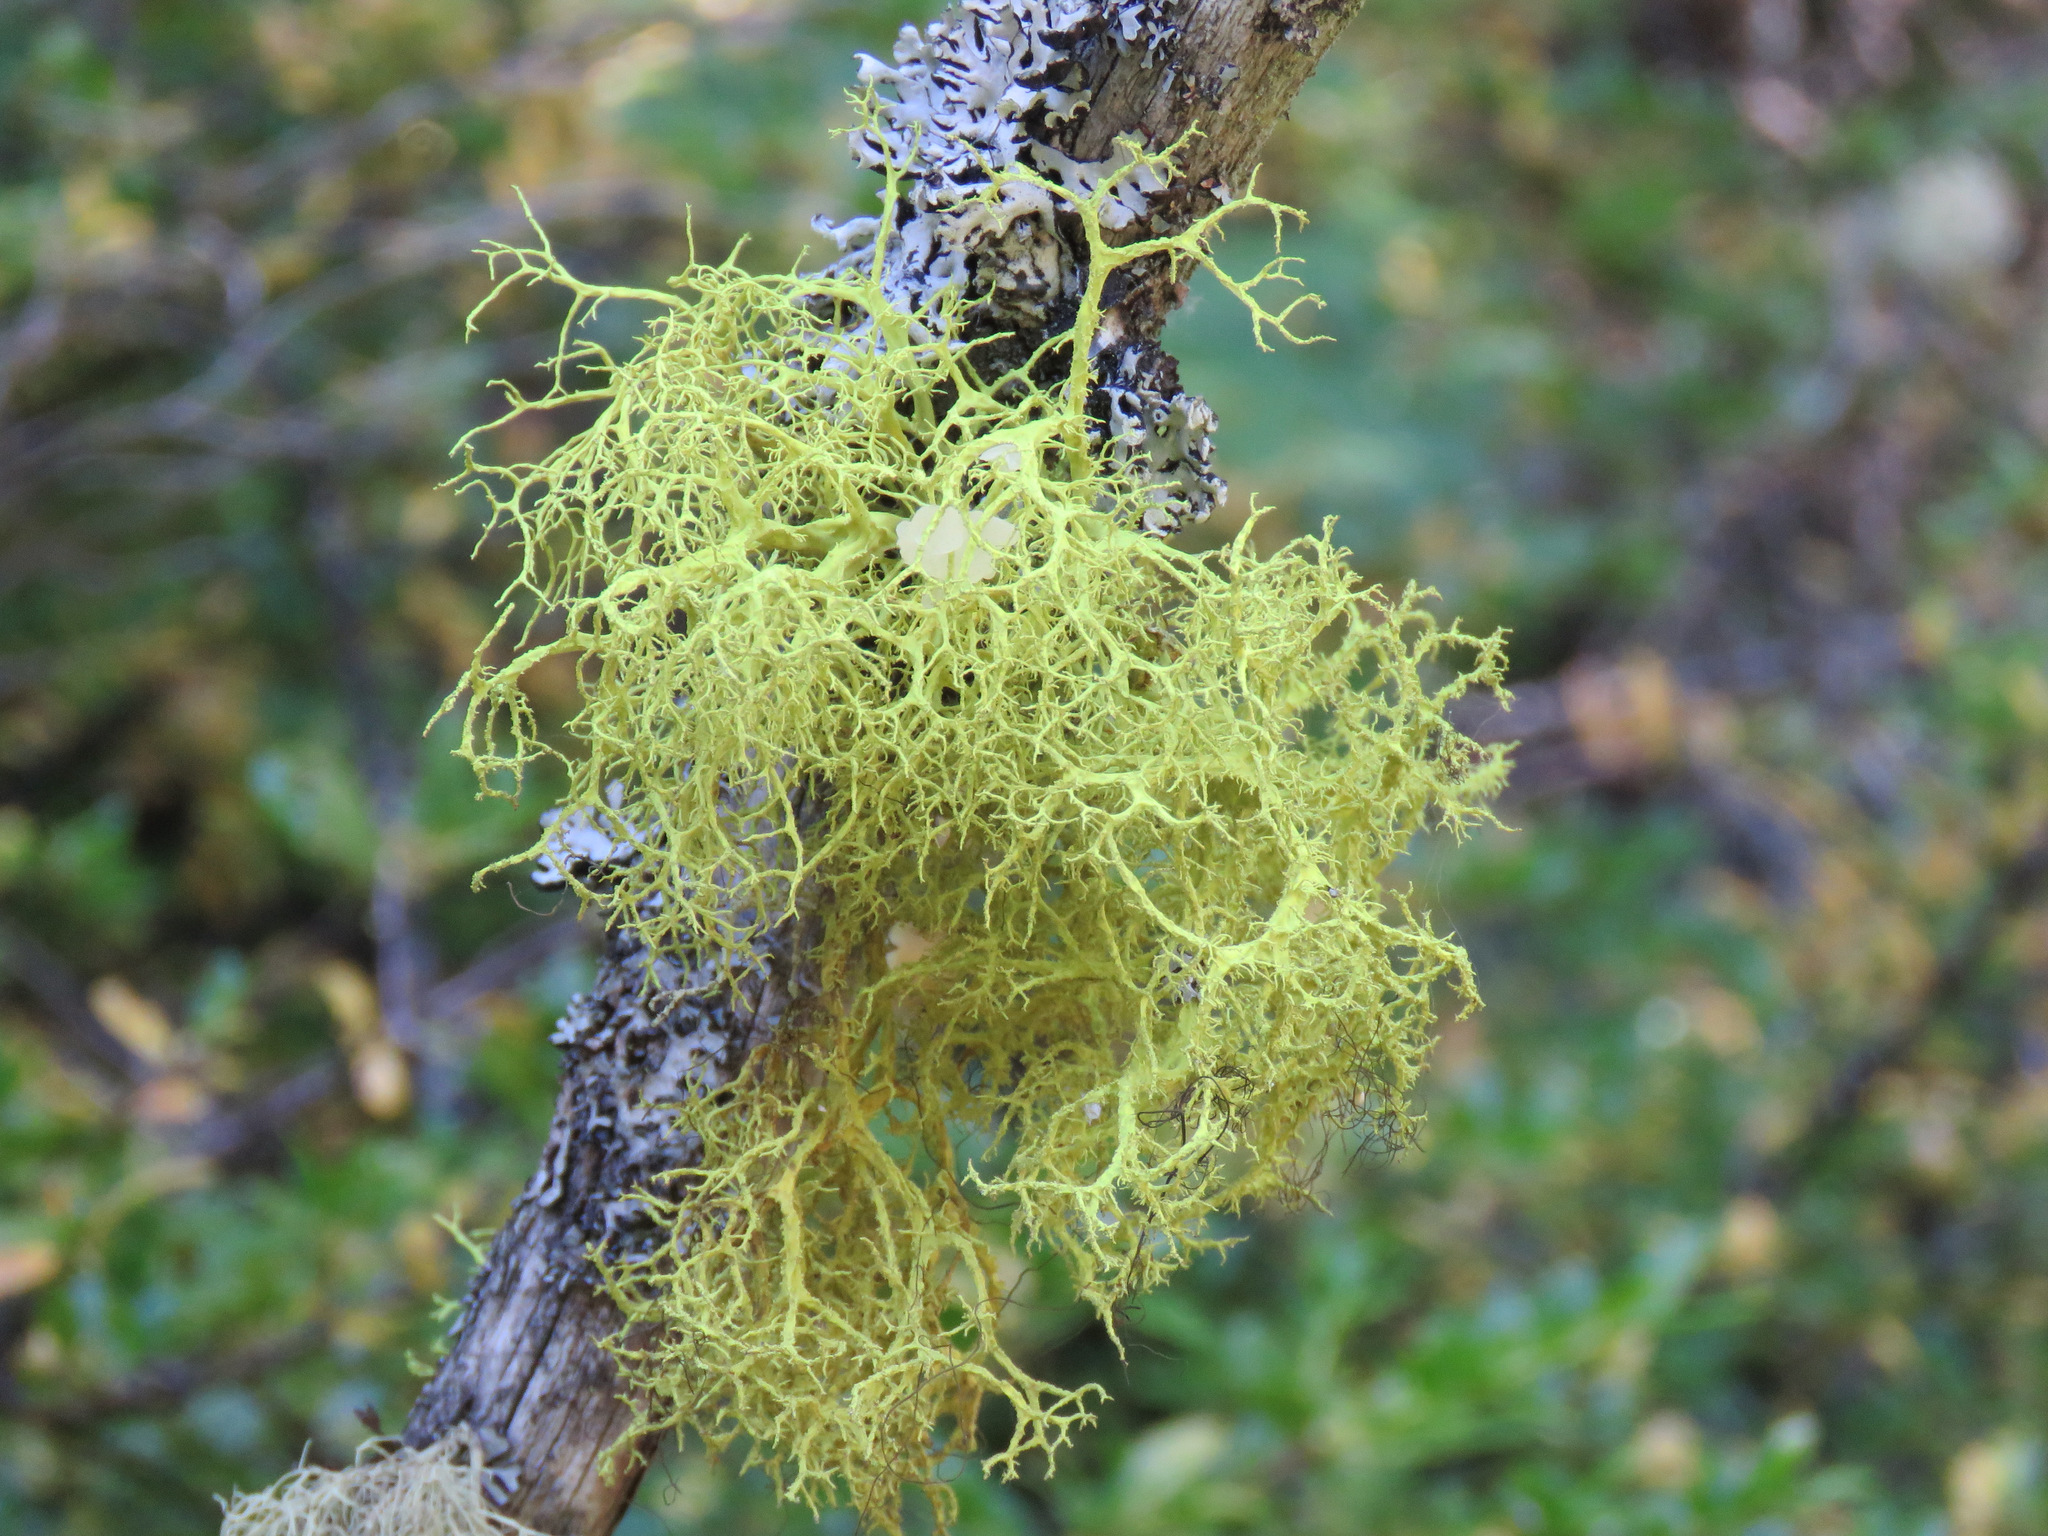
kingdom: Fungi
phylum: Ascomycota
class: Lecanoromycetes
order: Lecanorales
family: Parmeliaceae
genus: Letharia
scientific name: Letharia vulpina
